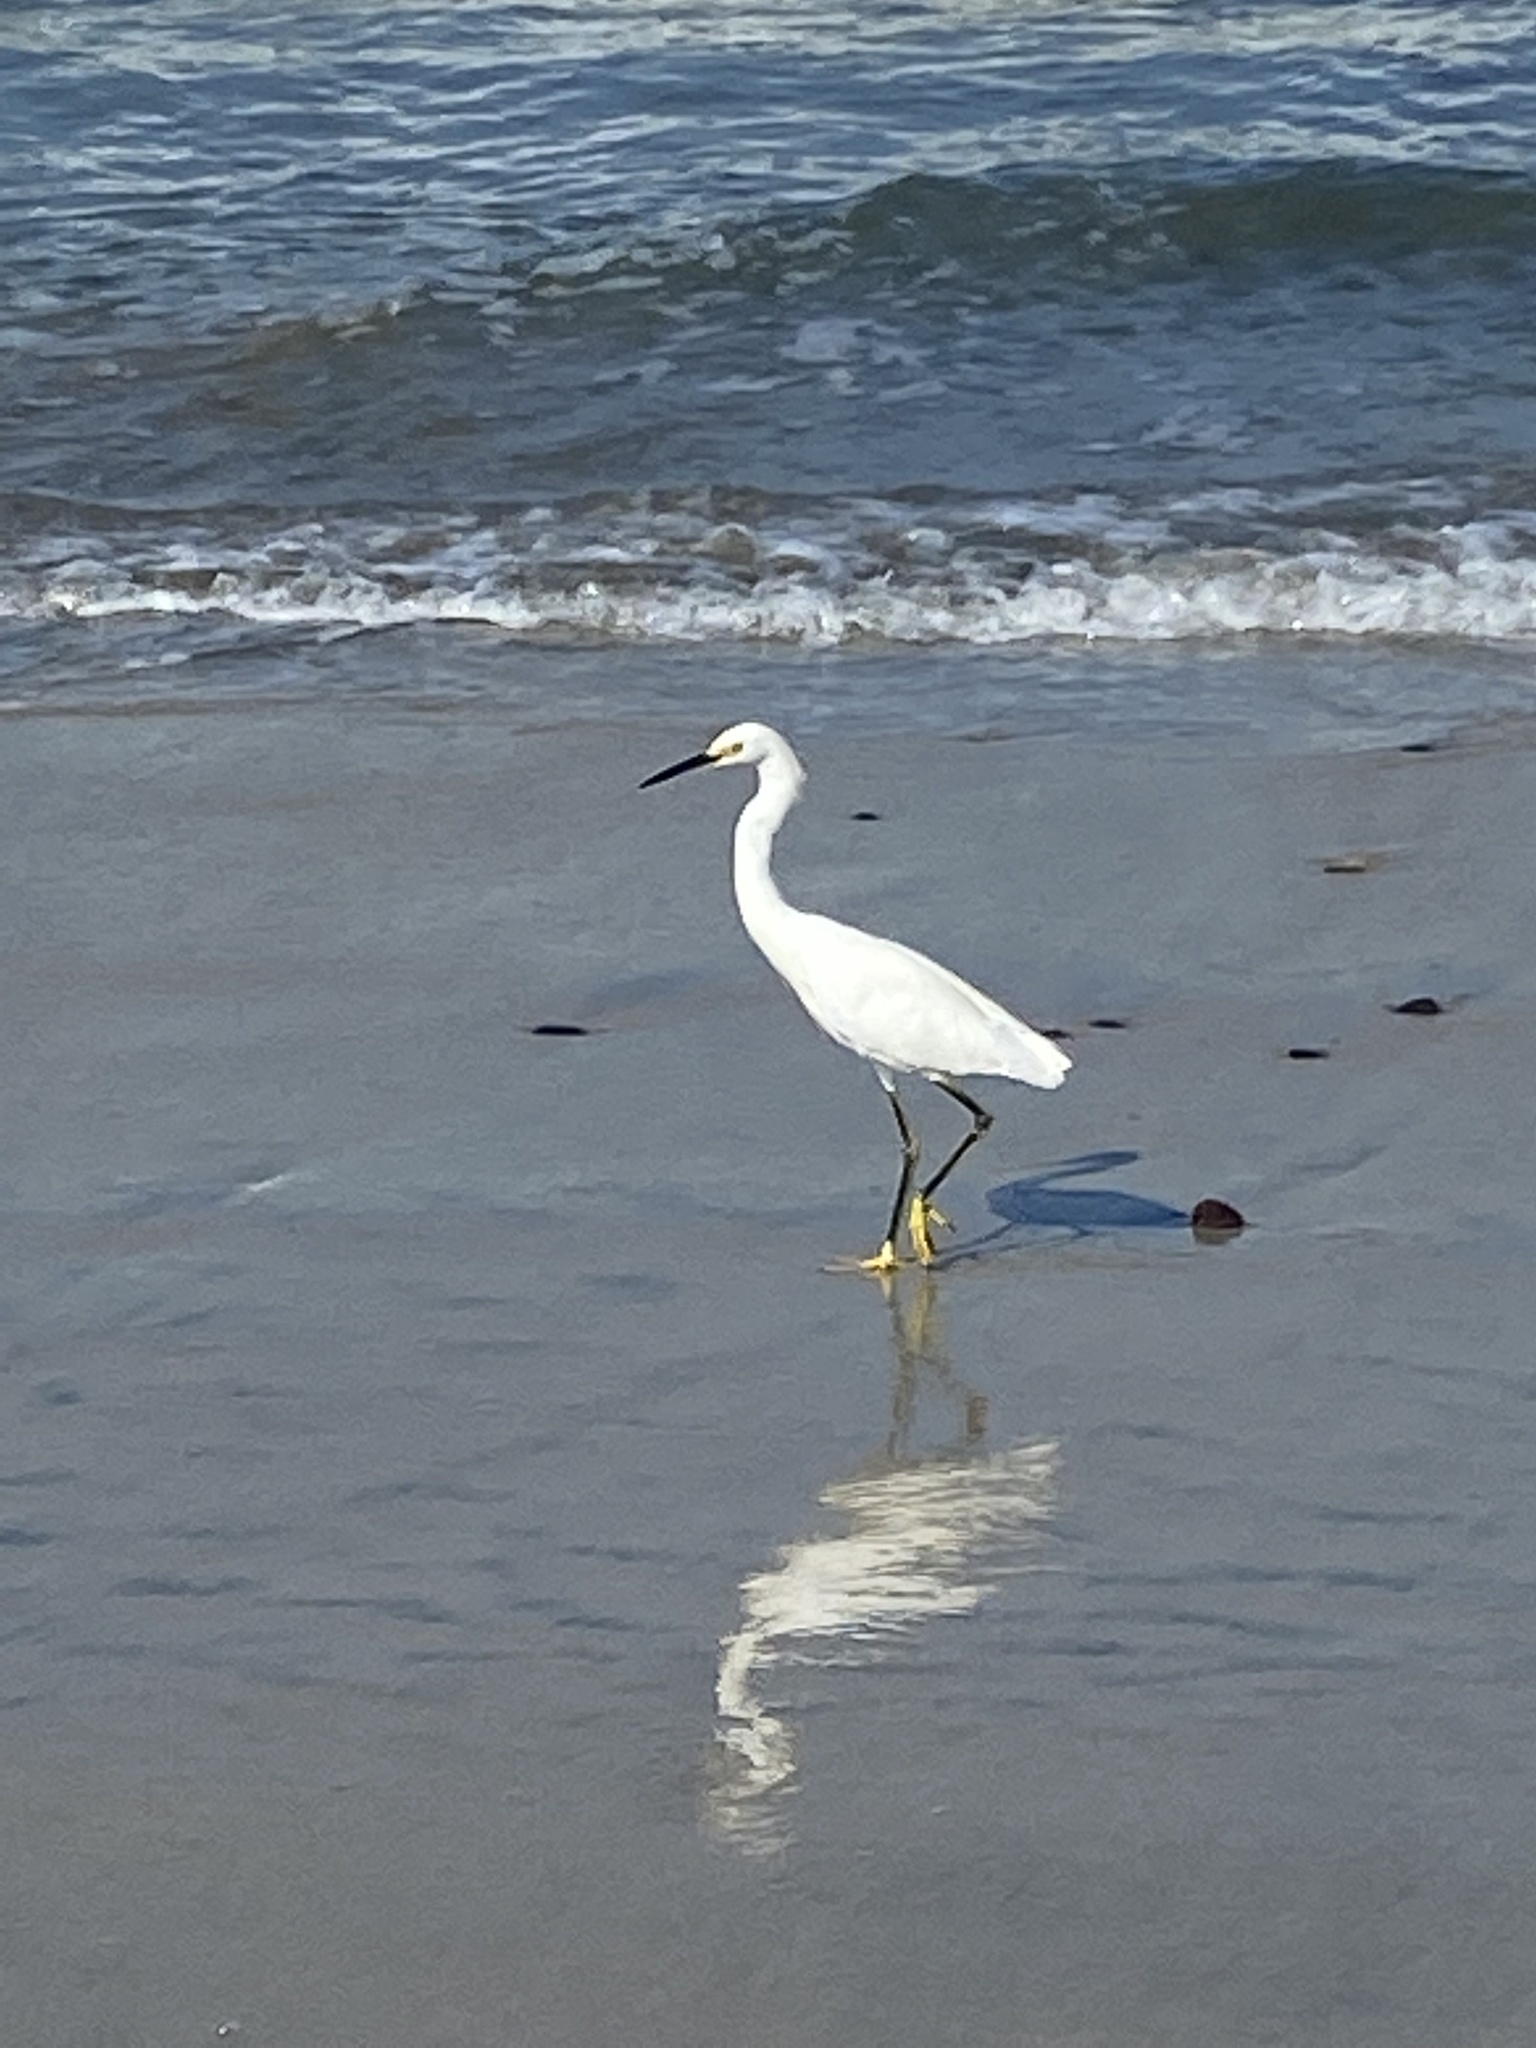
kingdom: Animalia
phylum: Chordata
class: Aves
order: Pelecaniformes
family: Ardeidae
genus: Egretta
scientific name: Egretta thula
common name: Snowy egret
